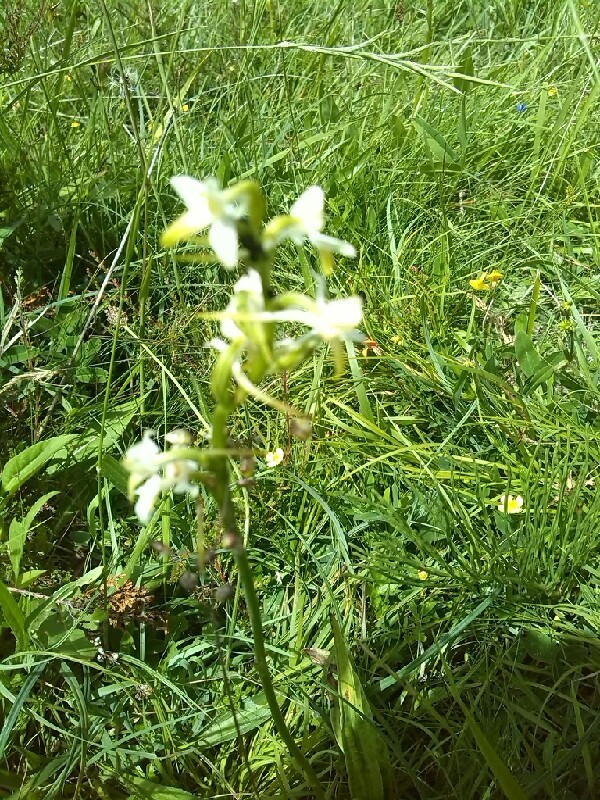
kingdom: Plantae
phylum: Tracheophyta
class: Liliopsida
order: Asparagales
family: Orchidaceae
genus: Platanthera
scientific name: Platanthera chlorantha
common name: Greater butterfly-orchid
